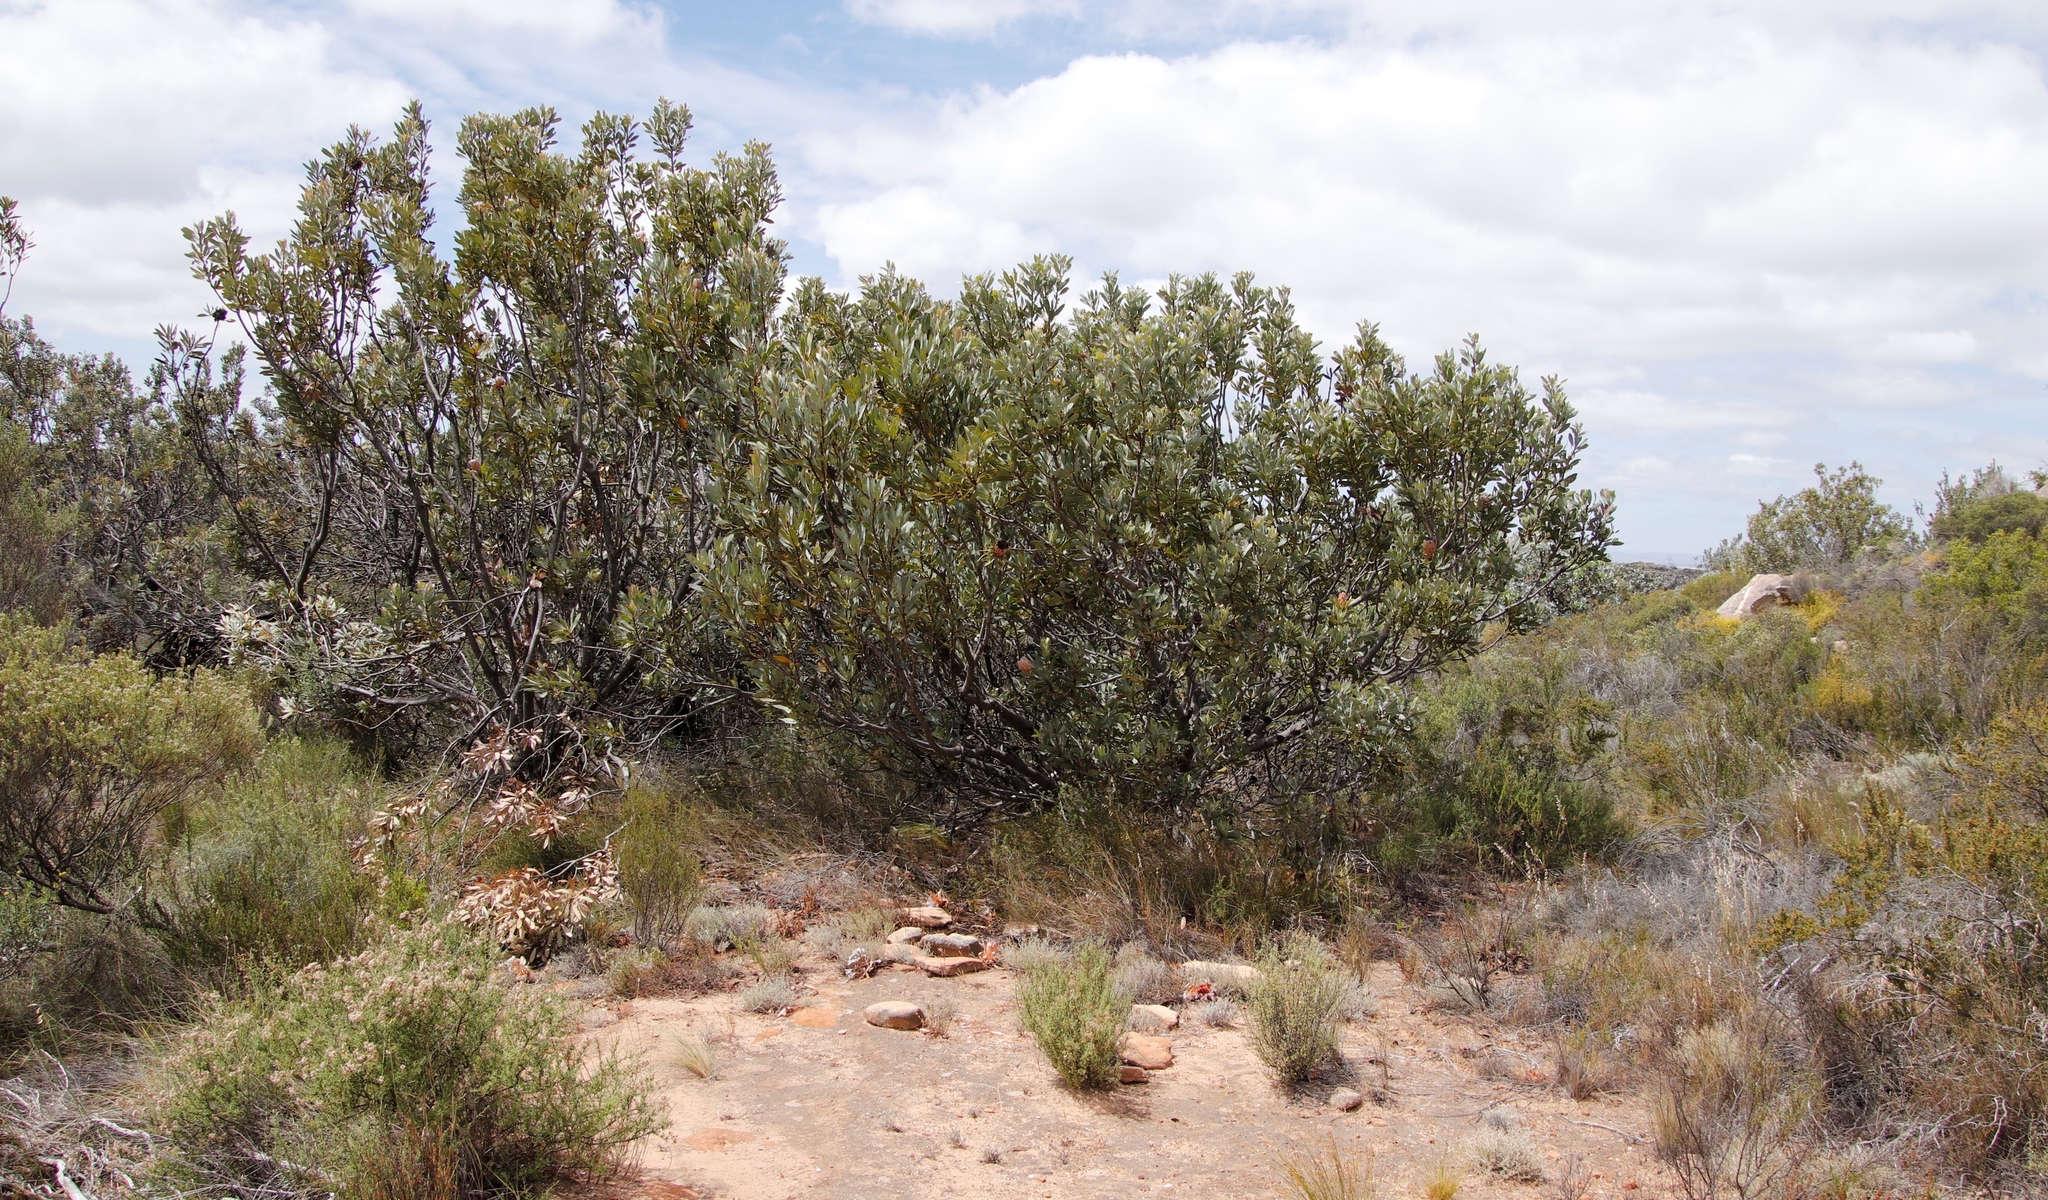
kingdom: Plantae
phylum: Tracheophyta
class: Magnoliopsida
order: Proteales
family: Proteaceae
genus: Protea
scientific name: Protea laurifolia
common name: Grey-leaf sugarbsh
